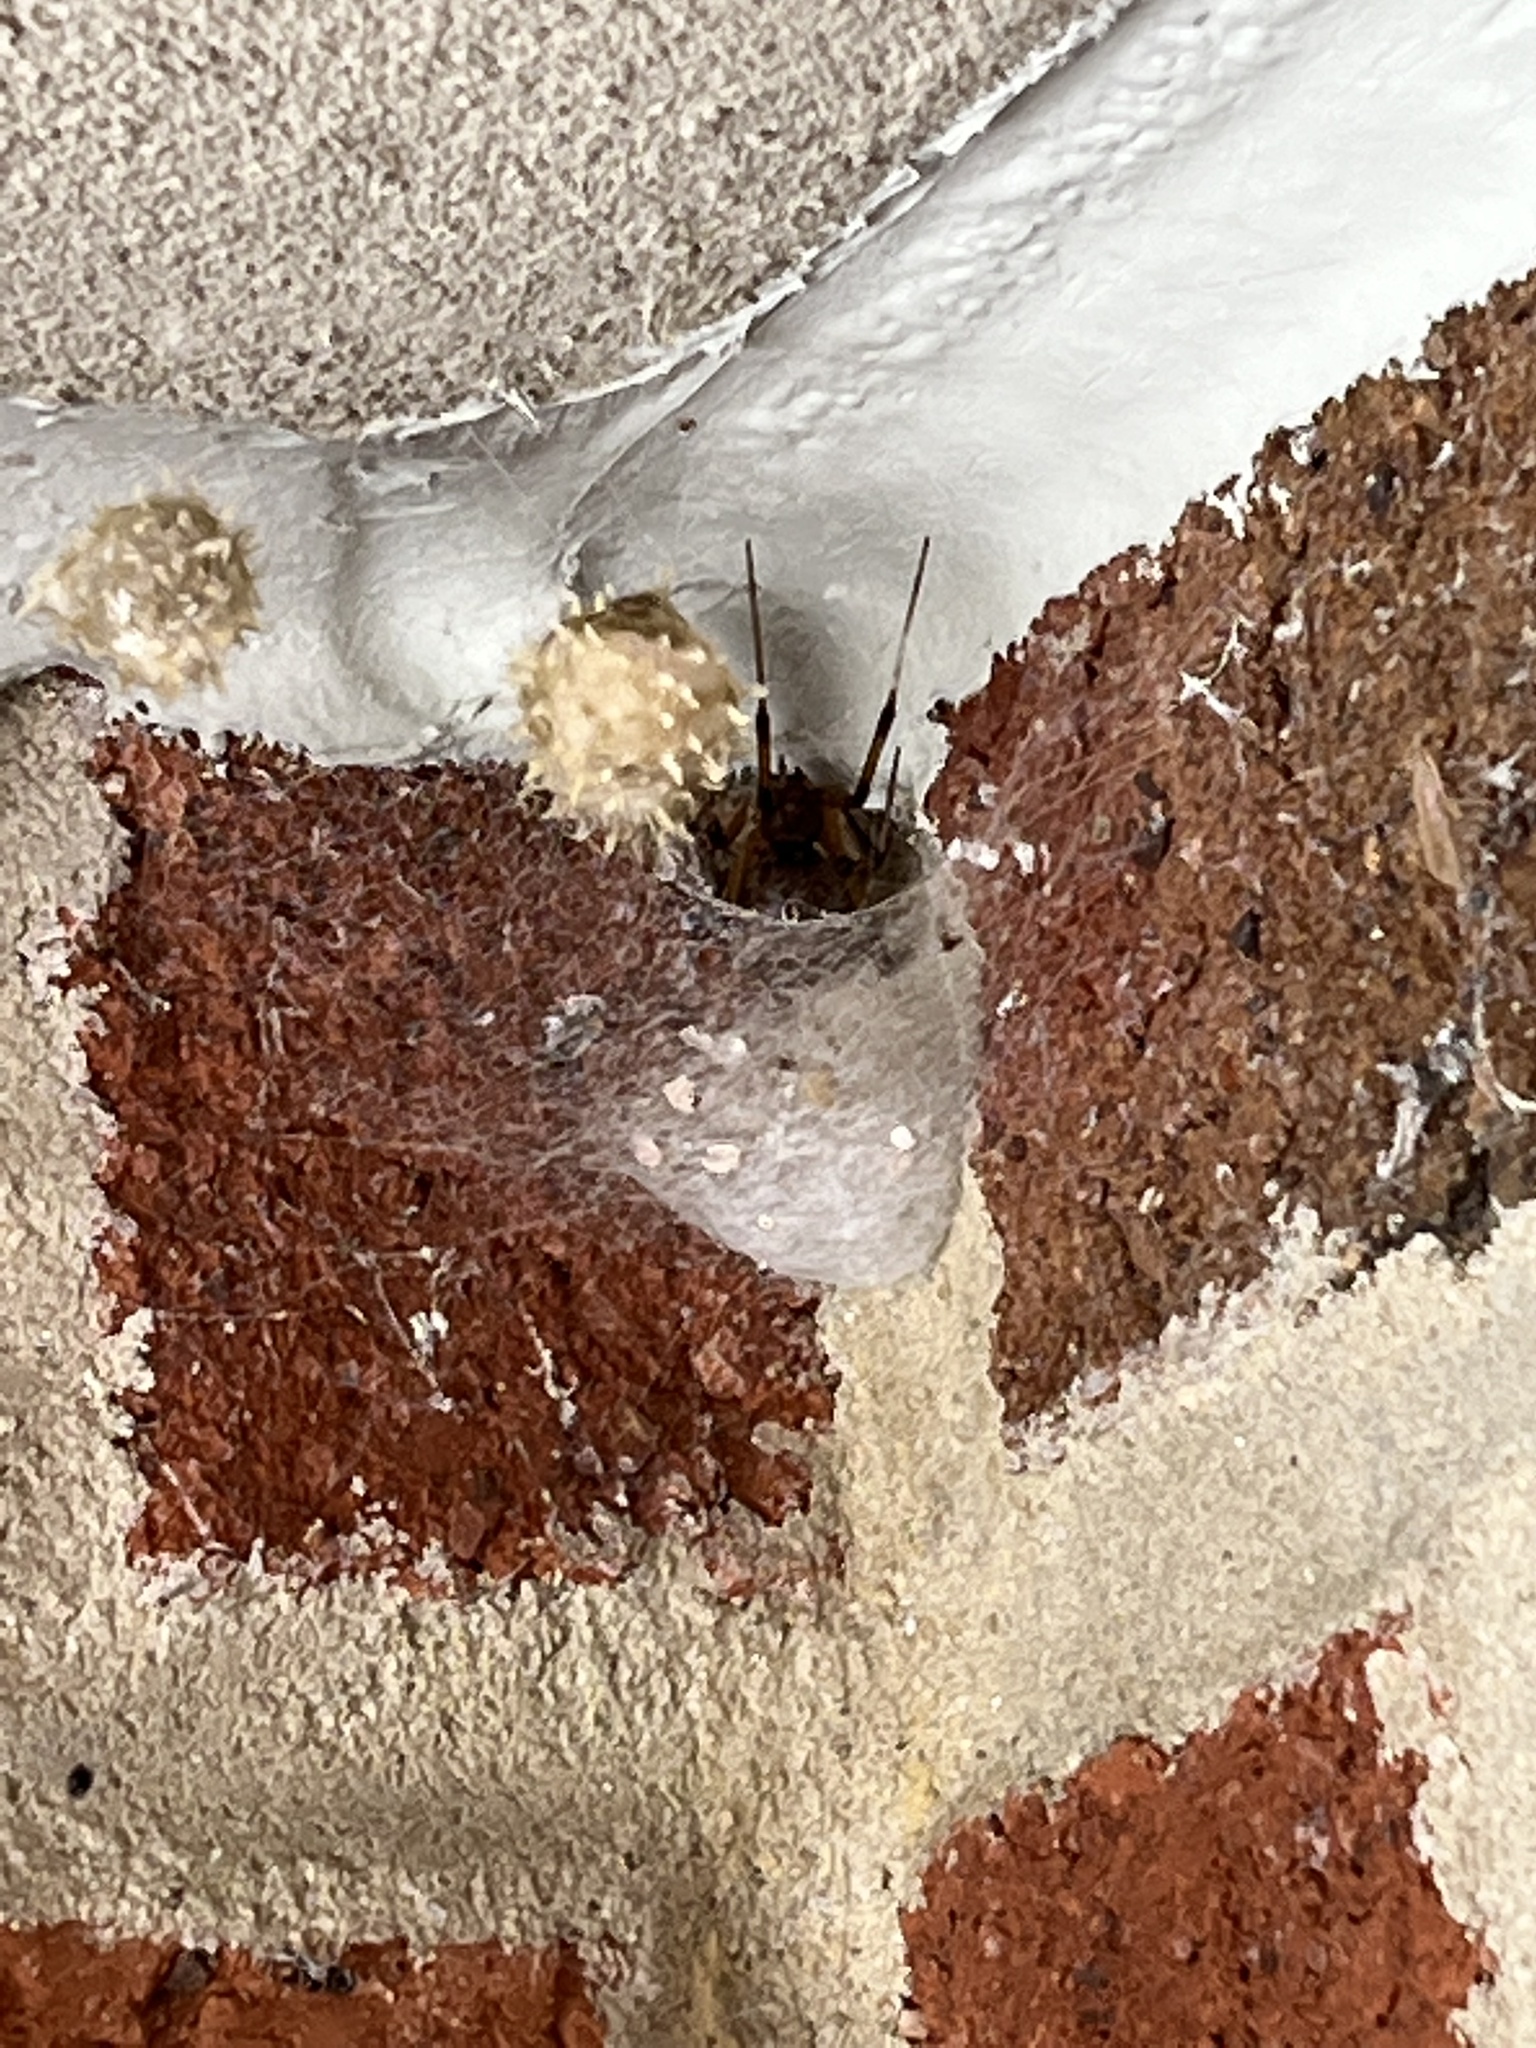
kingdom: Animalia
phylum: Arthropoda
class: Arachnida
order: Araneae
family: Theridiidae
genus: Latrodectus
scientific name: Latrodectus geometricus
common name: Brown widow spider
